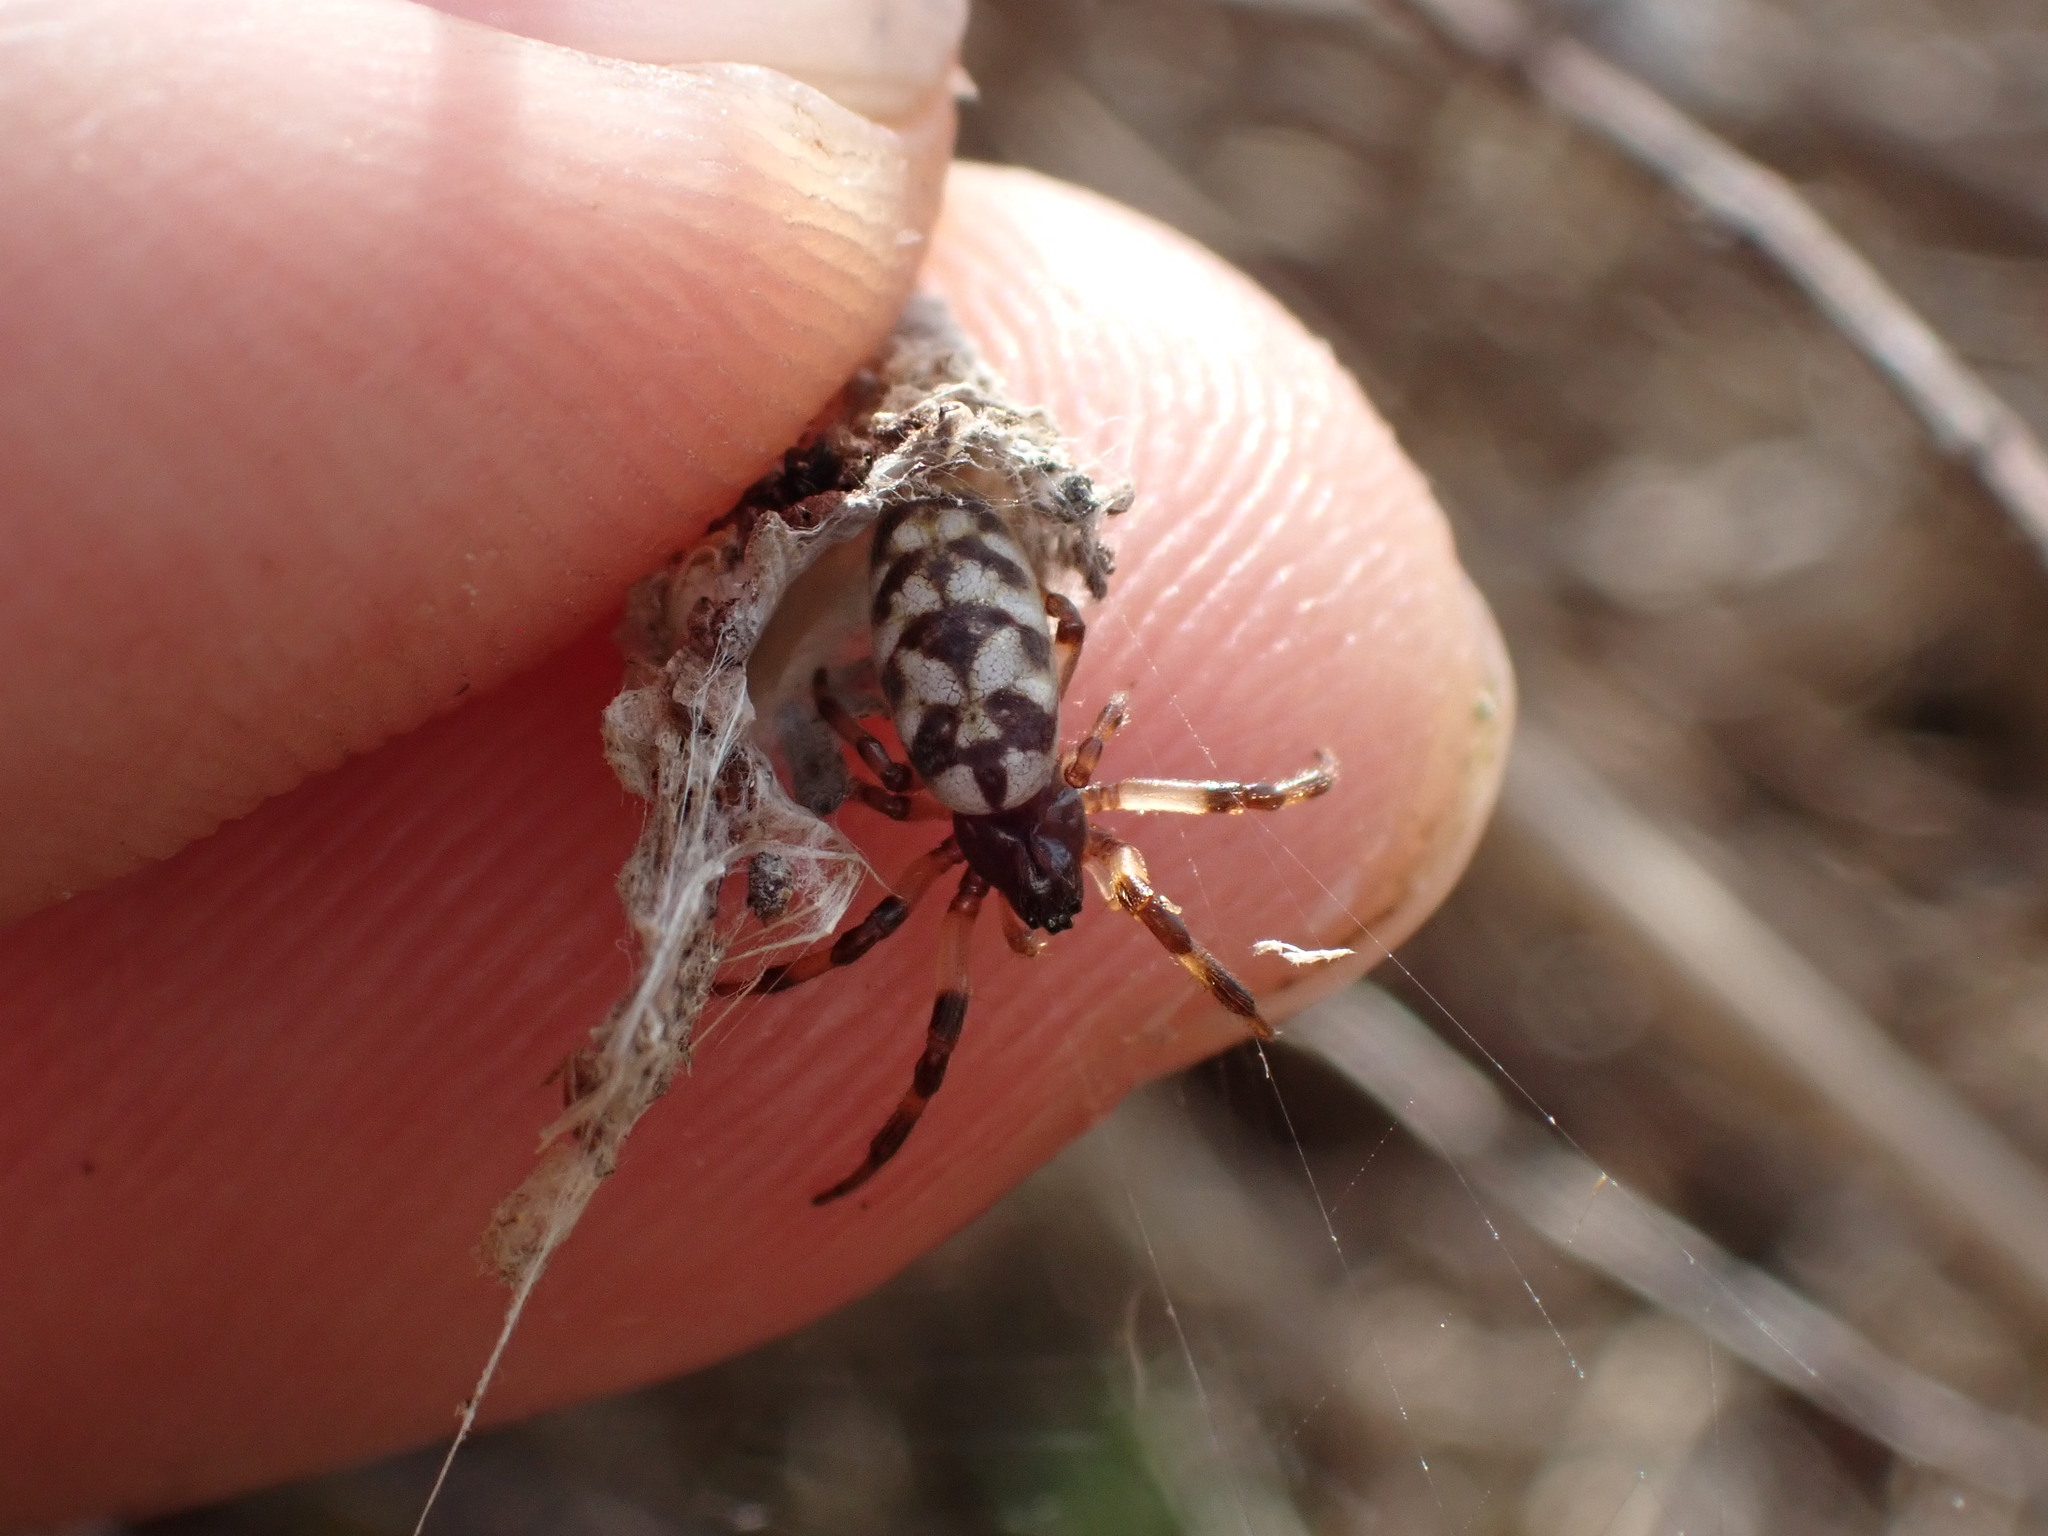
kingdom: Animalia
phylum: Arthropoda
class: Arachnida
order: Araneae
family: Araneidae
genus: Nemoscolus
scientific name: Nemoscolus laurae
